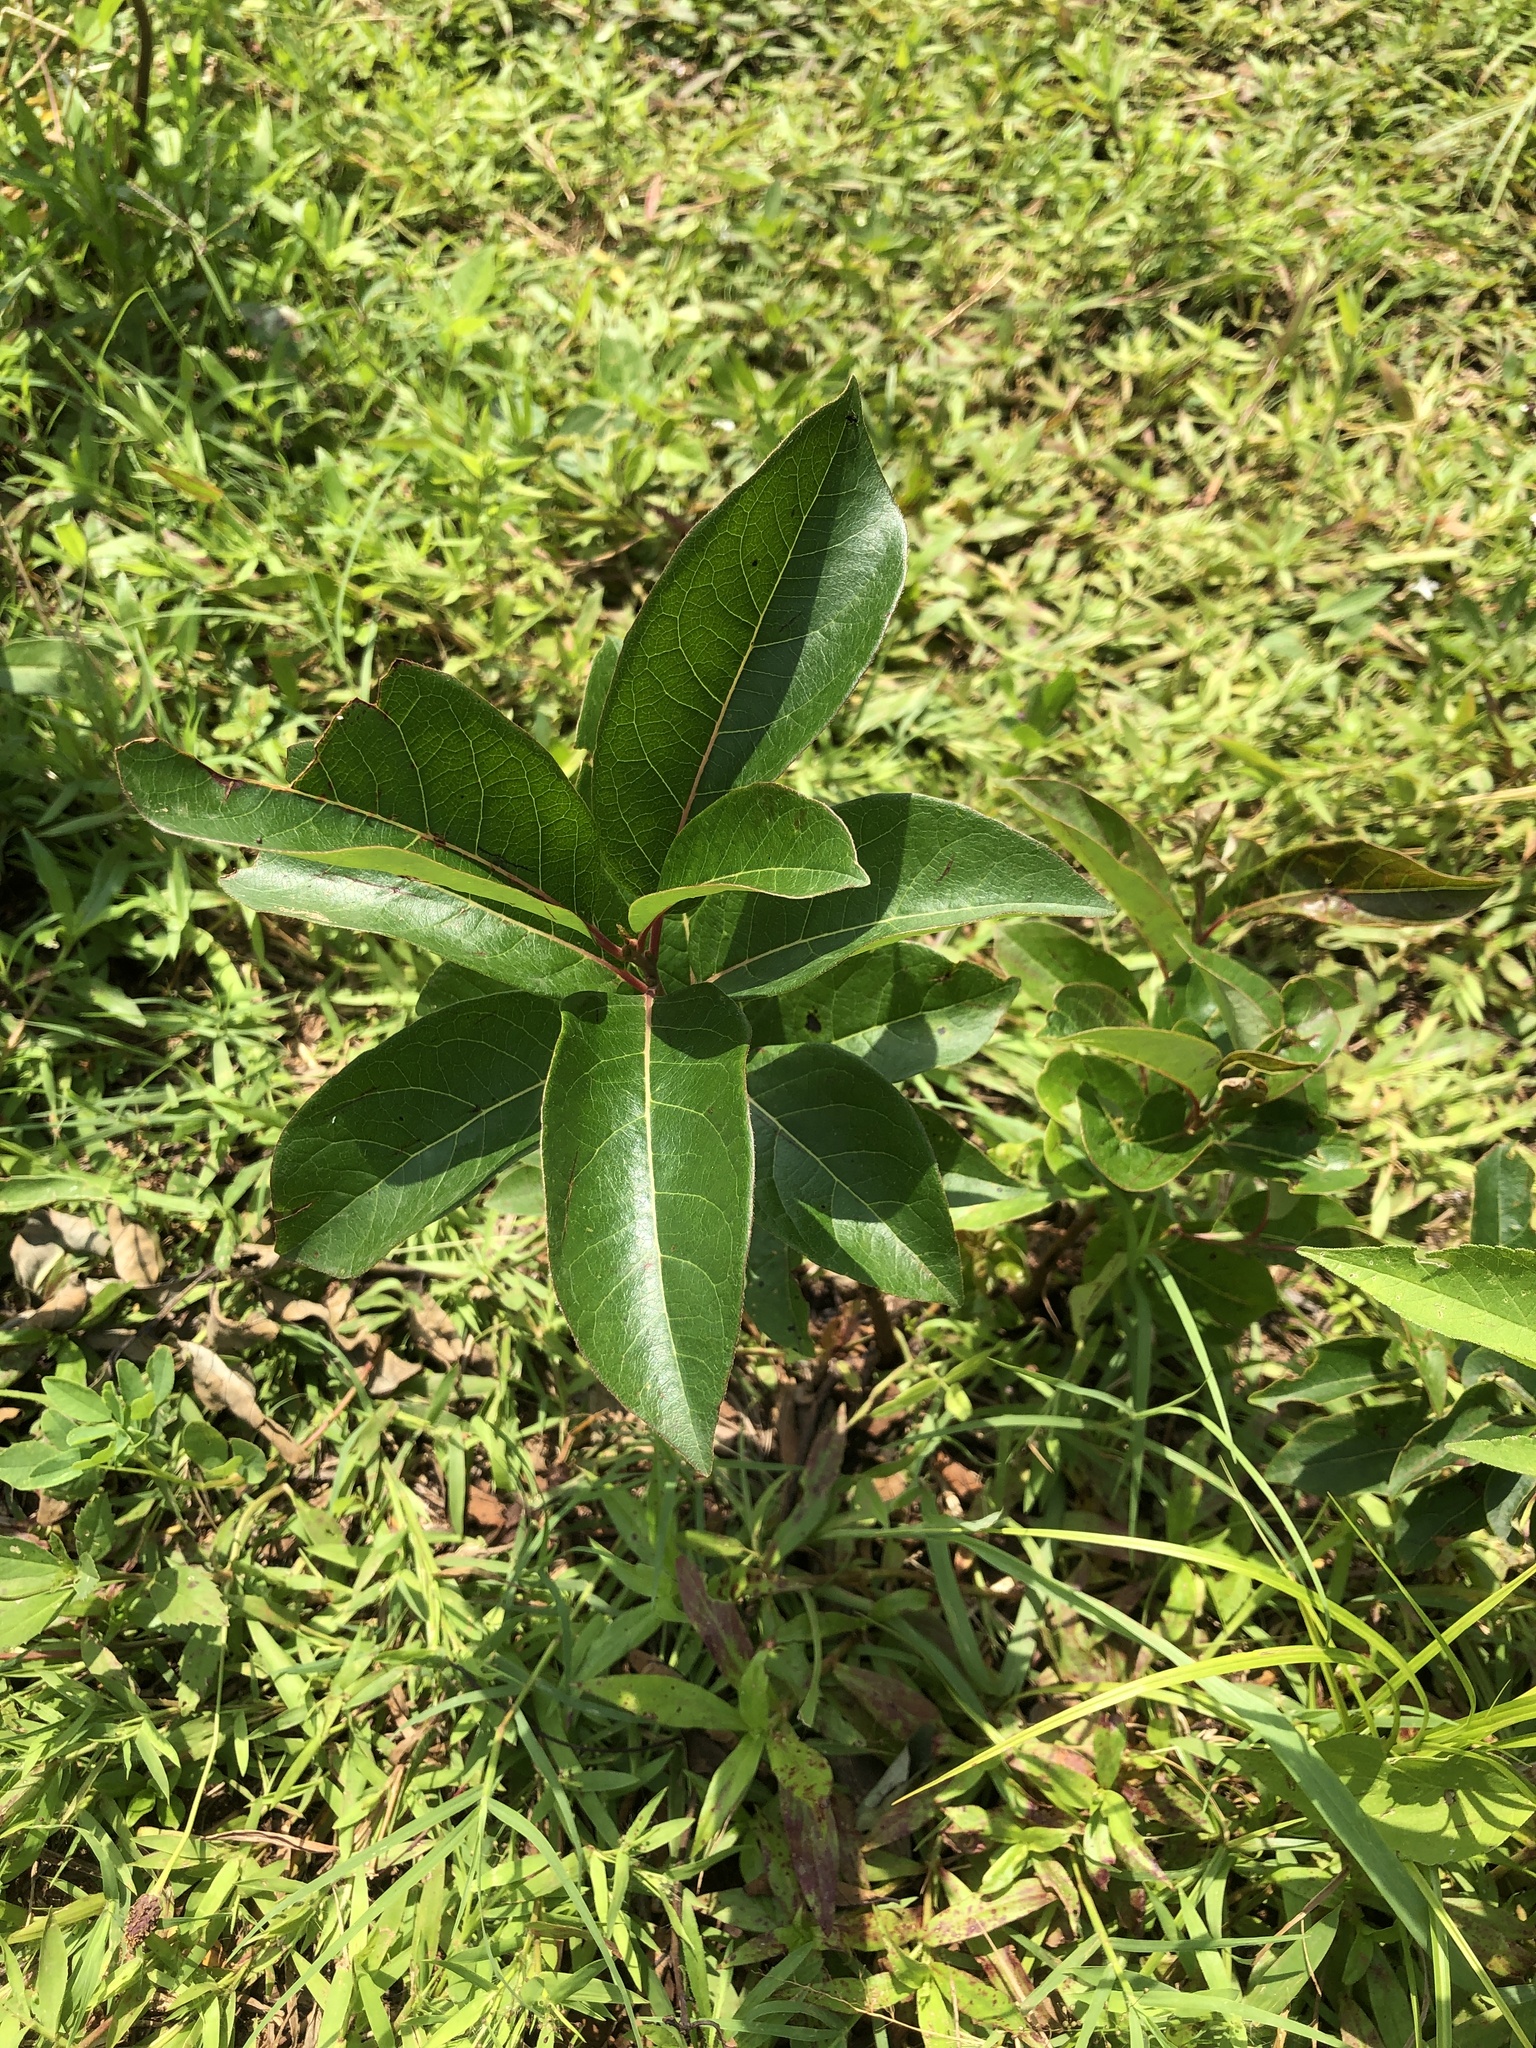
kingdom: Plantae
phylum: Tracheophyta
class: Magnoliopsida
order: Ericales
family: Ebenaceae
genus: Diospyros
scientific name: Diospyros virginiana
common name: Persimmon
